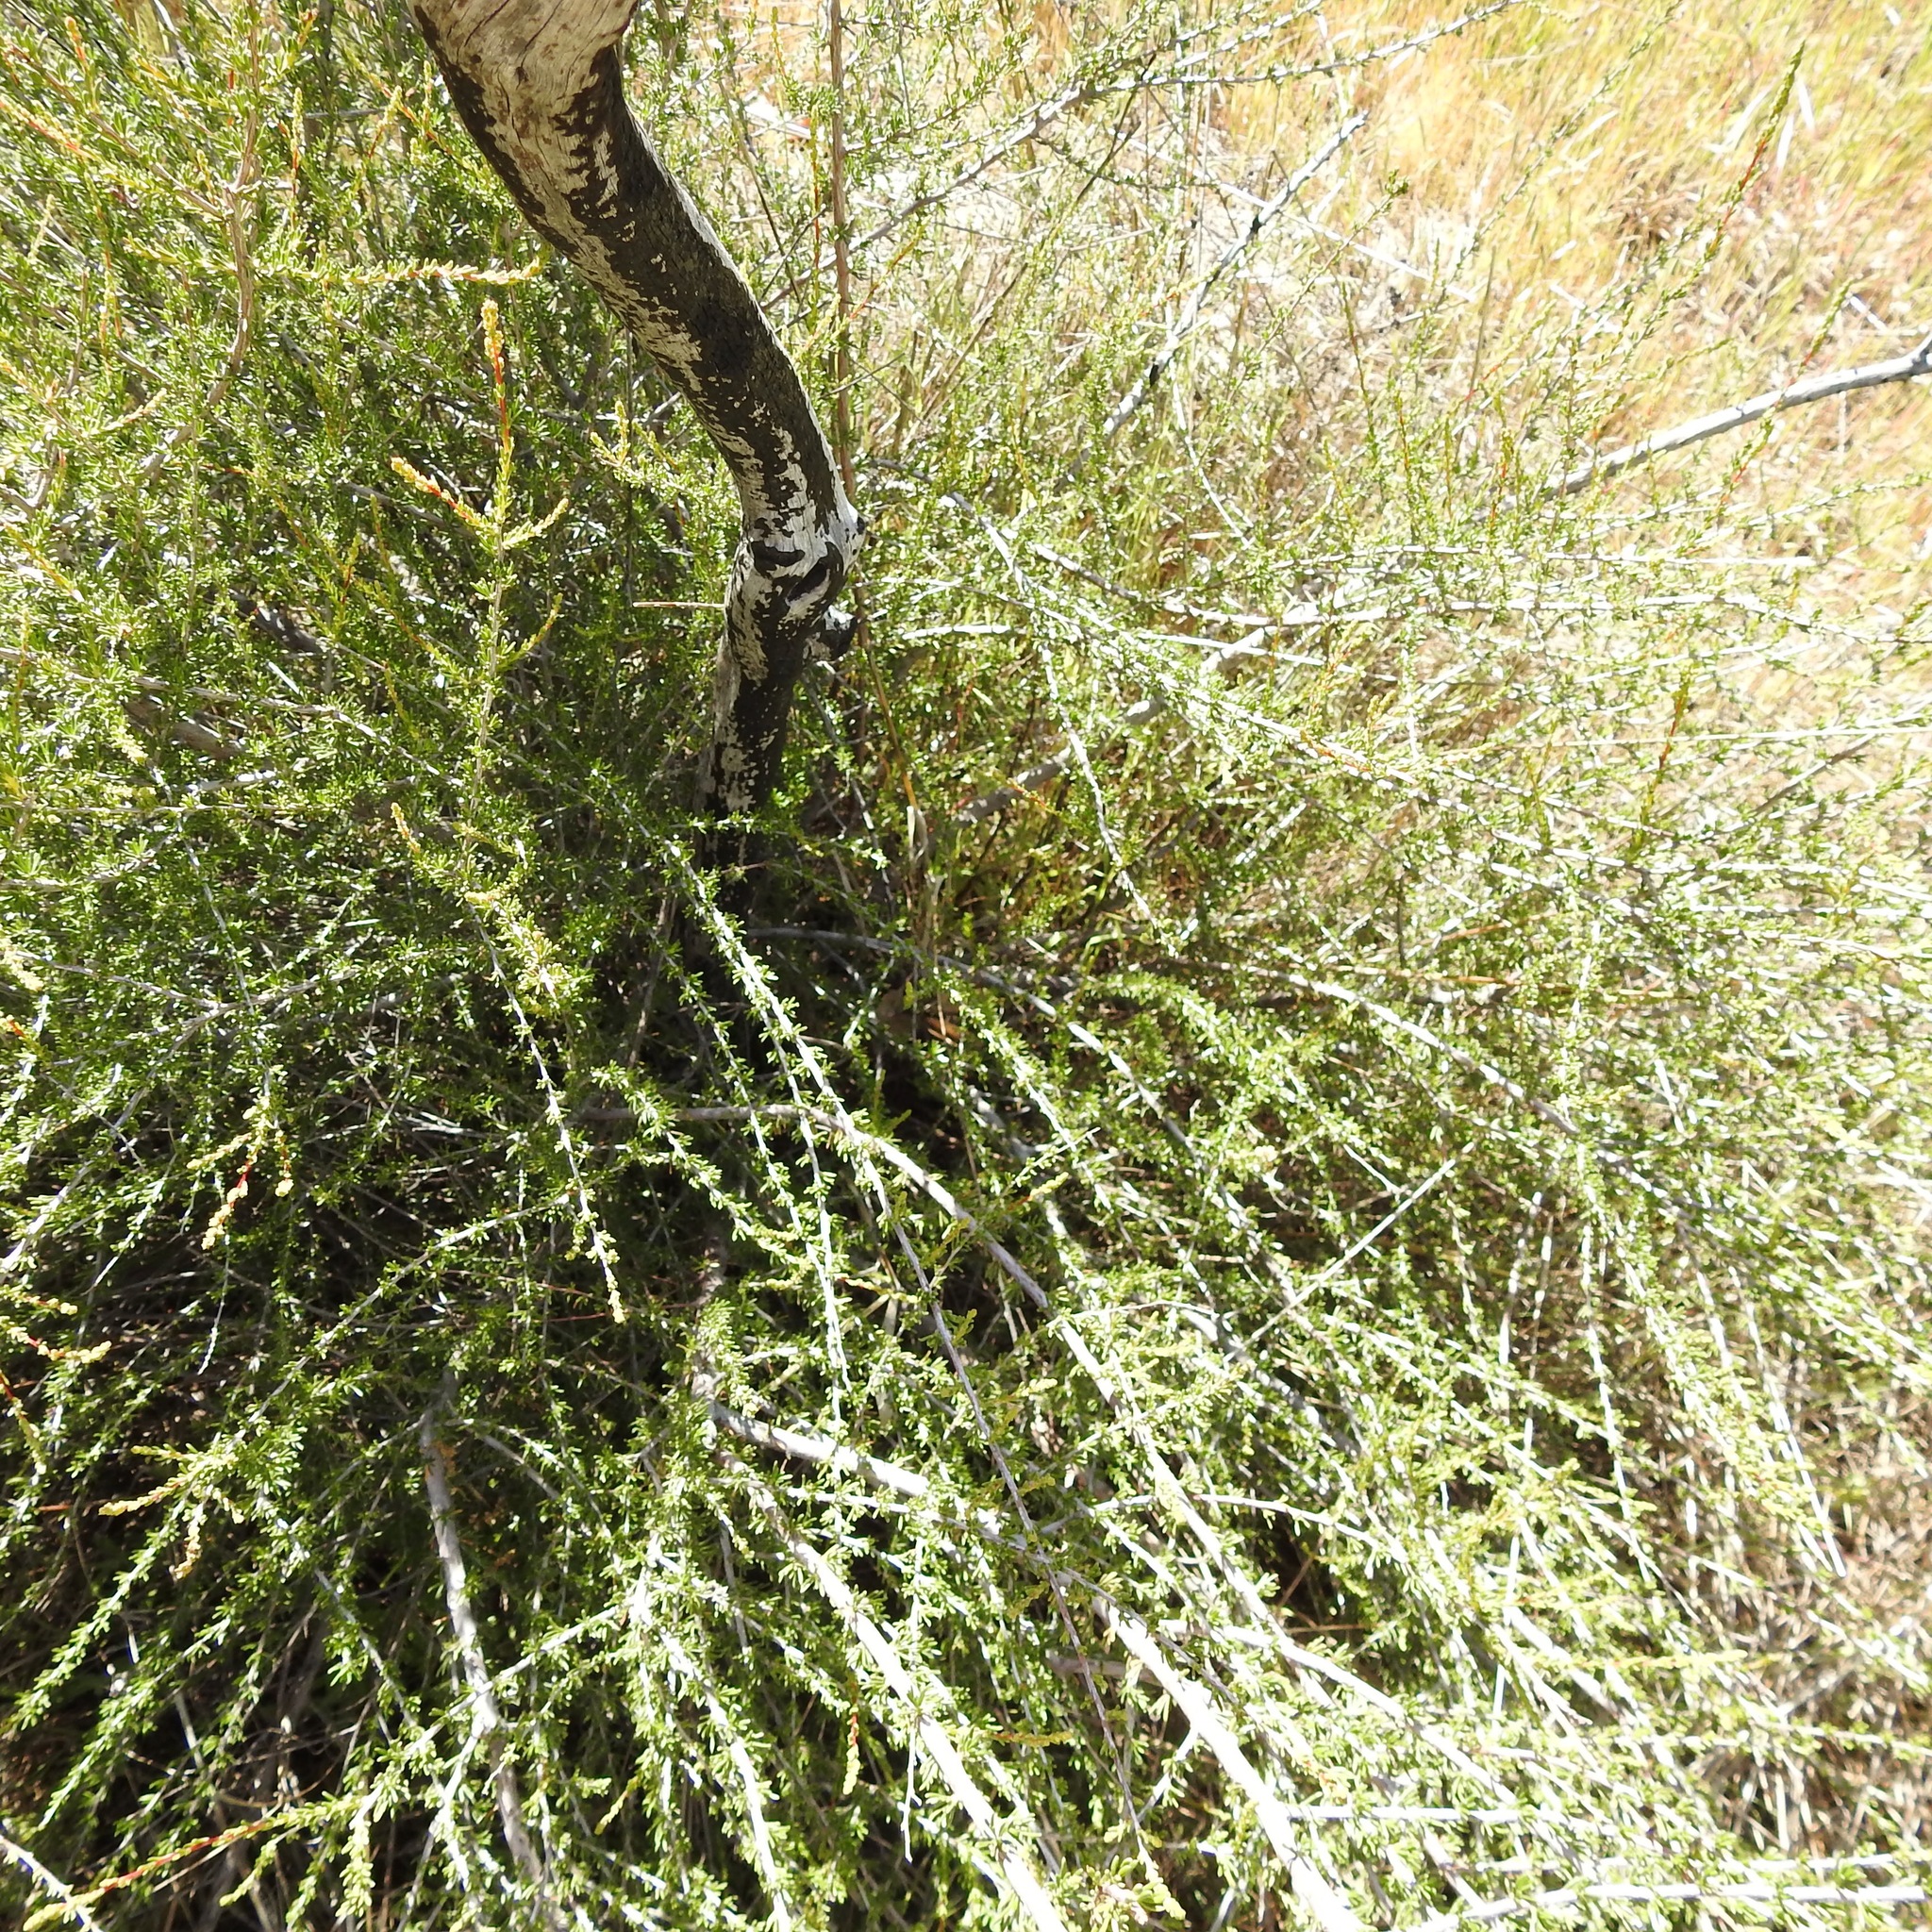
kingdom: Plantae
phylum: Tracheophyta
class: Magnoliopsida
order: Rosales
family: Rosaceae
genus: Adenostoma
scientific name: Adenostoma fasciculatum
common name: Chamise
